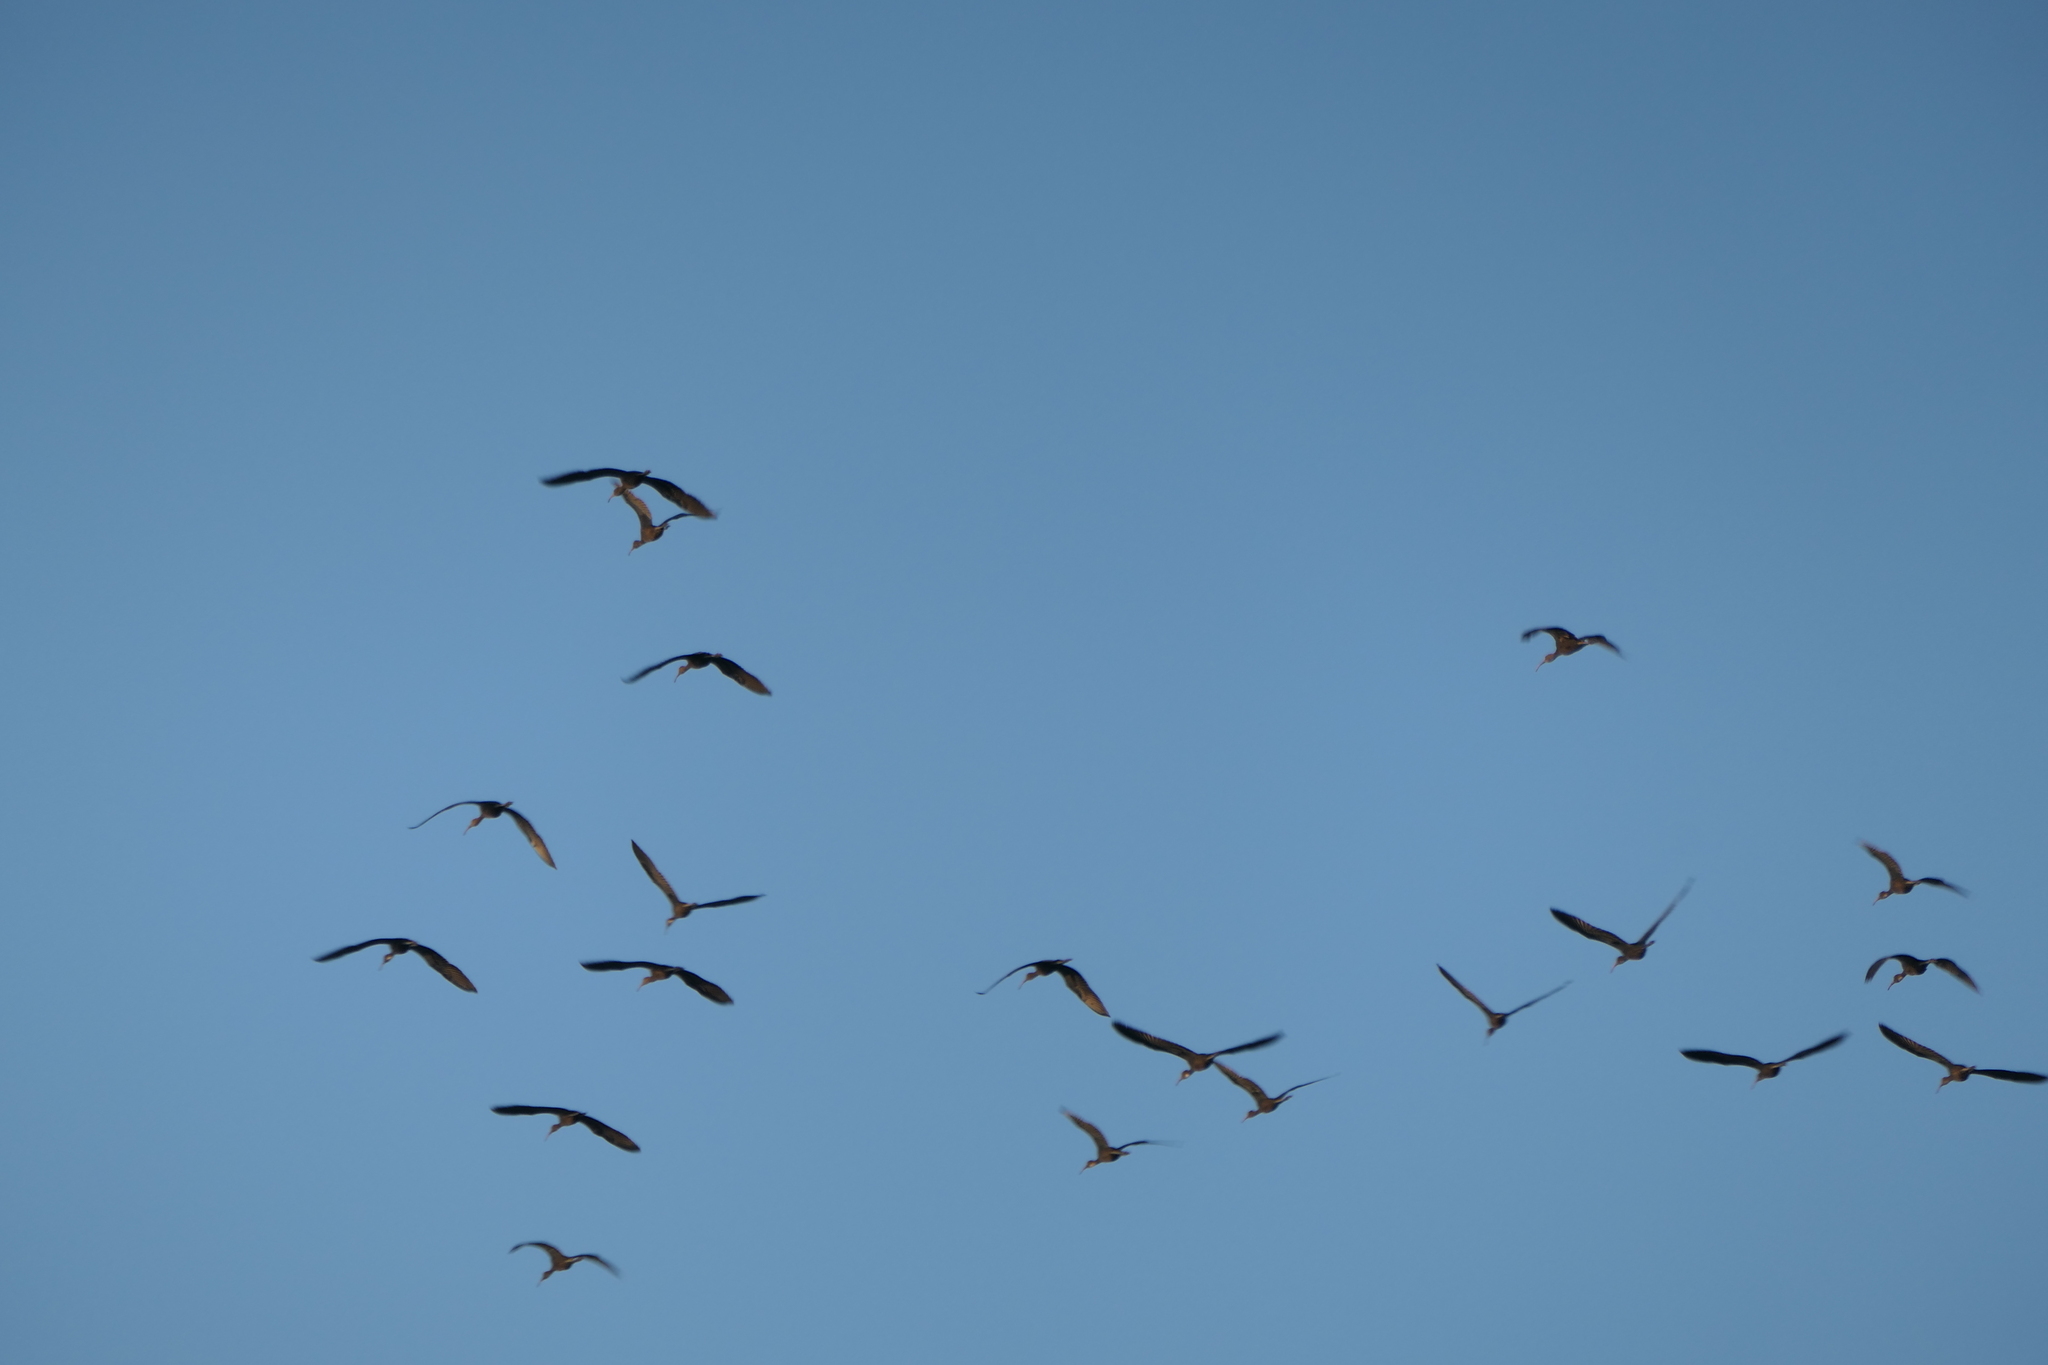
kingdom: Animalia
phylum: Chordata
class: Aves
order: Pelecaniformes
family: Threskiornithidae
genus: Plegadis
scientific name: Plegadis falcinellus
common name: Glossy ibis
